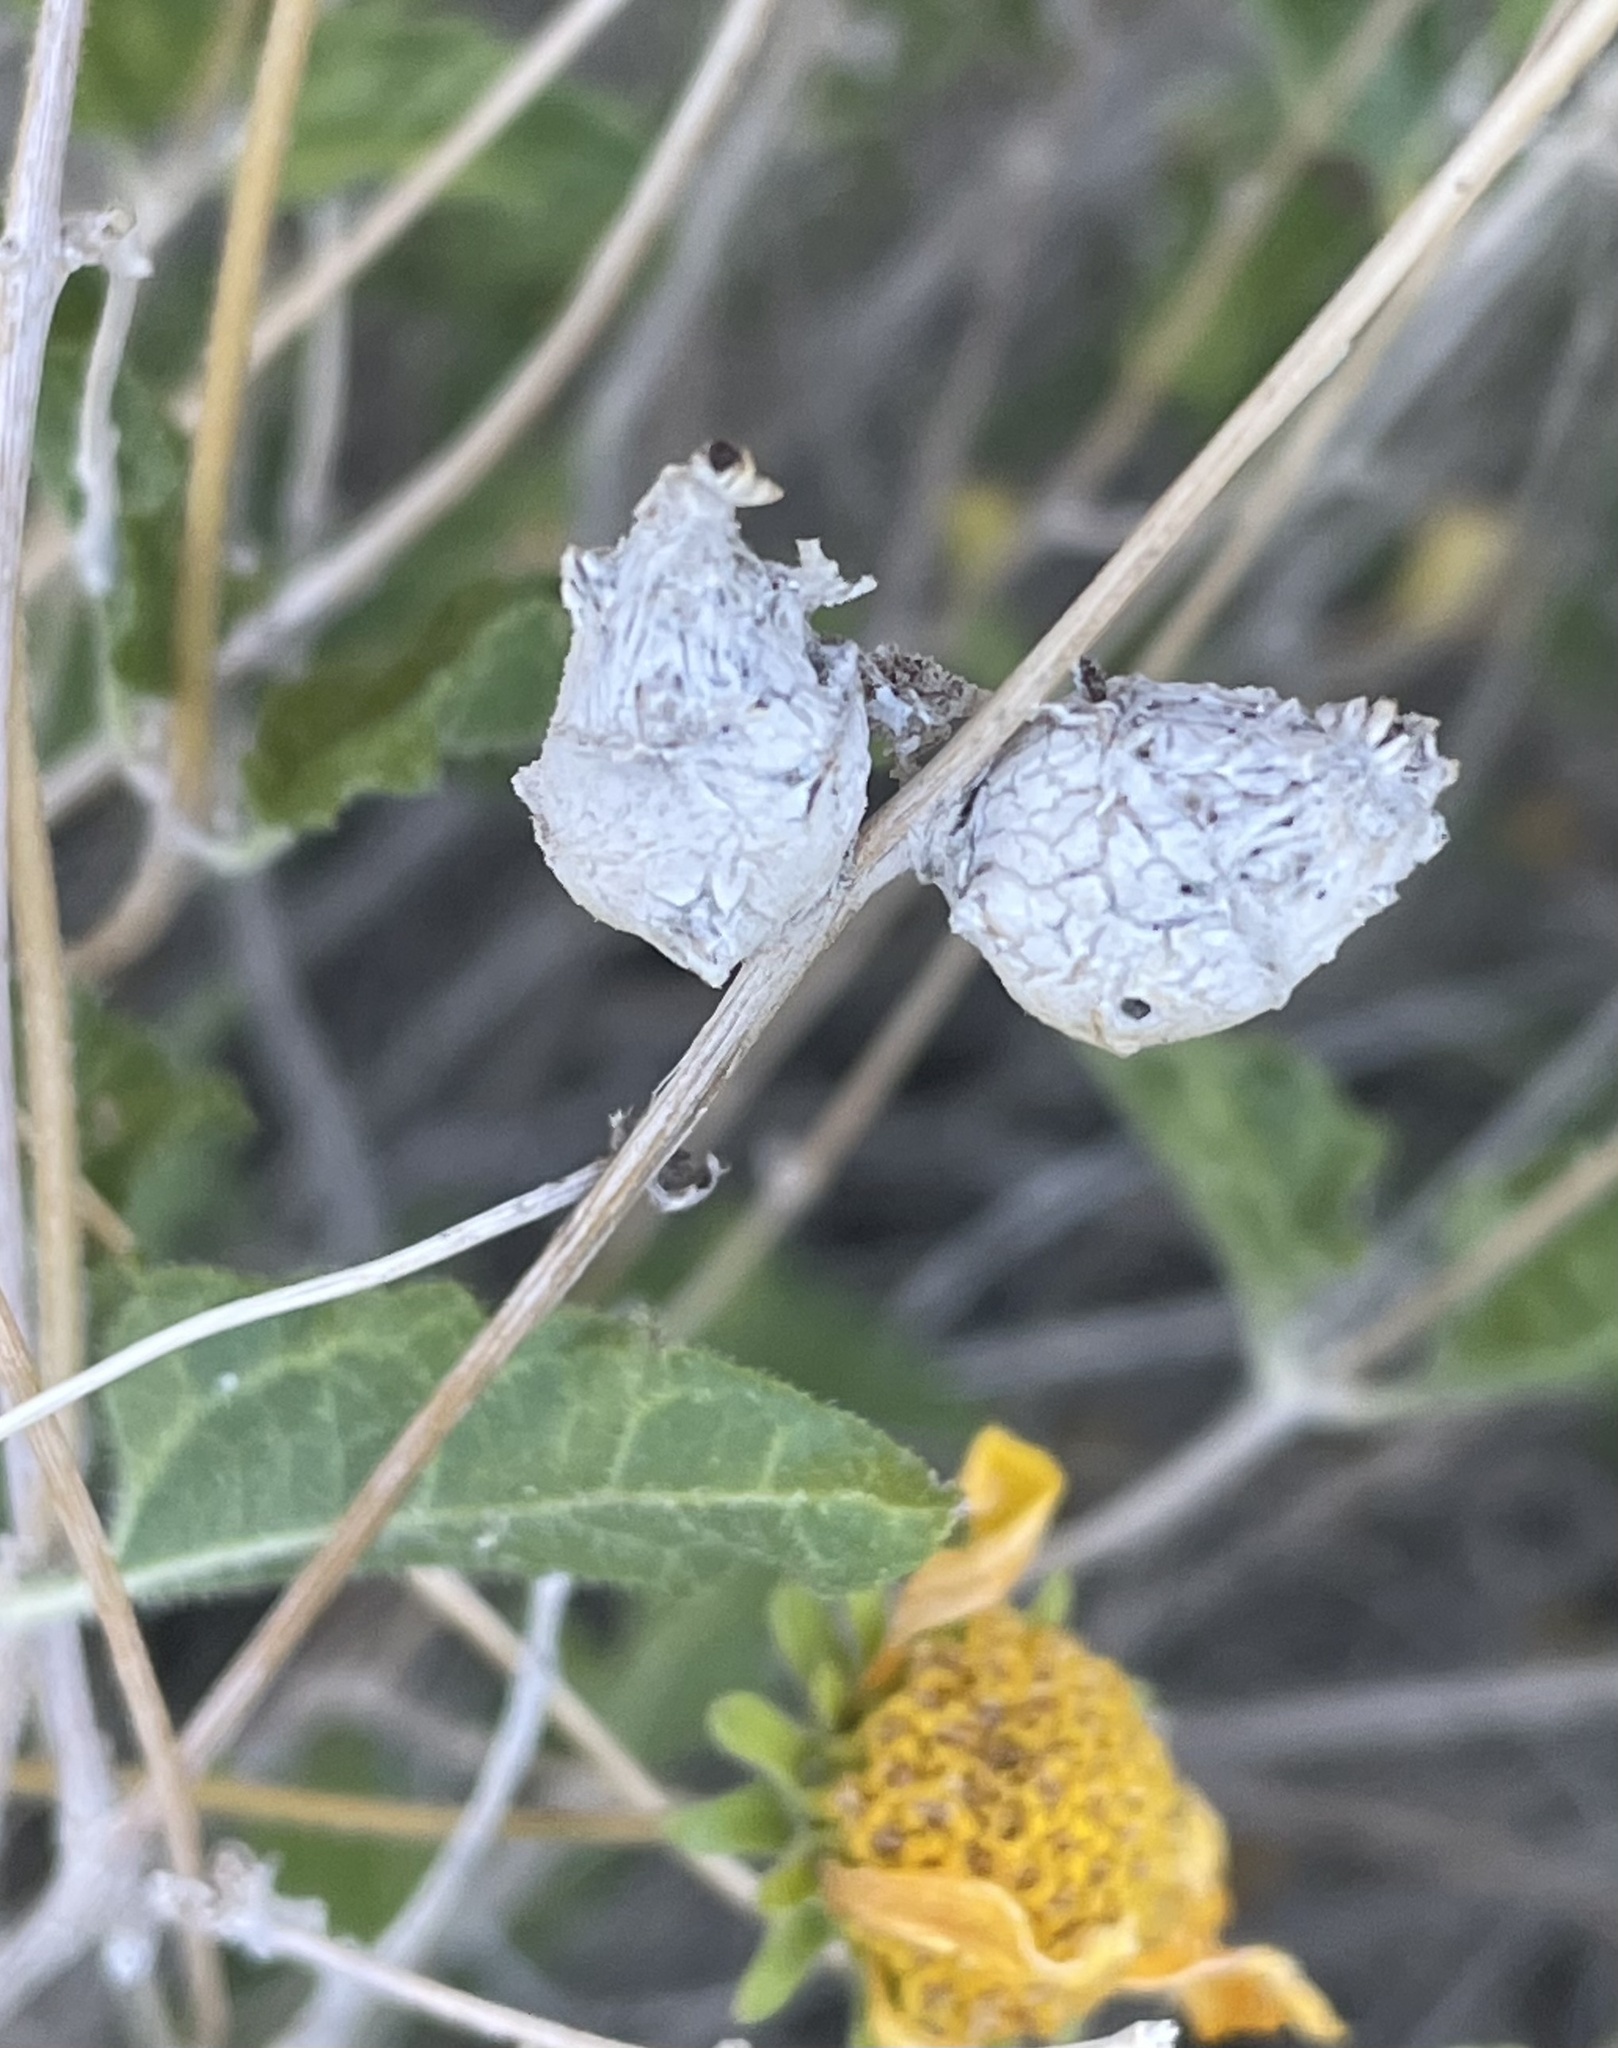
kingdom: Animalia
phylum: Arthropoda
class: Insecta
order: Diptera
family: Tephritidae
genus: Procecidochares
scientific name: Procecidochares stonei
